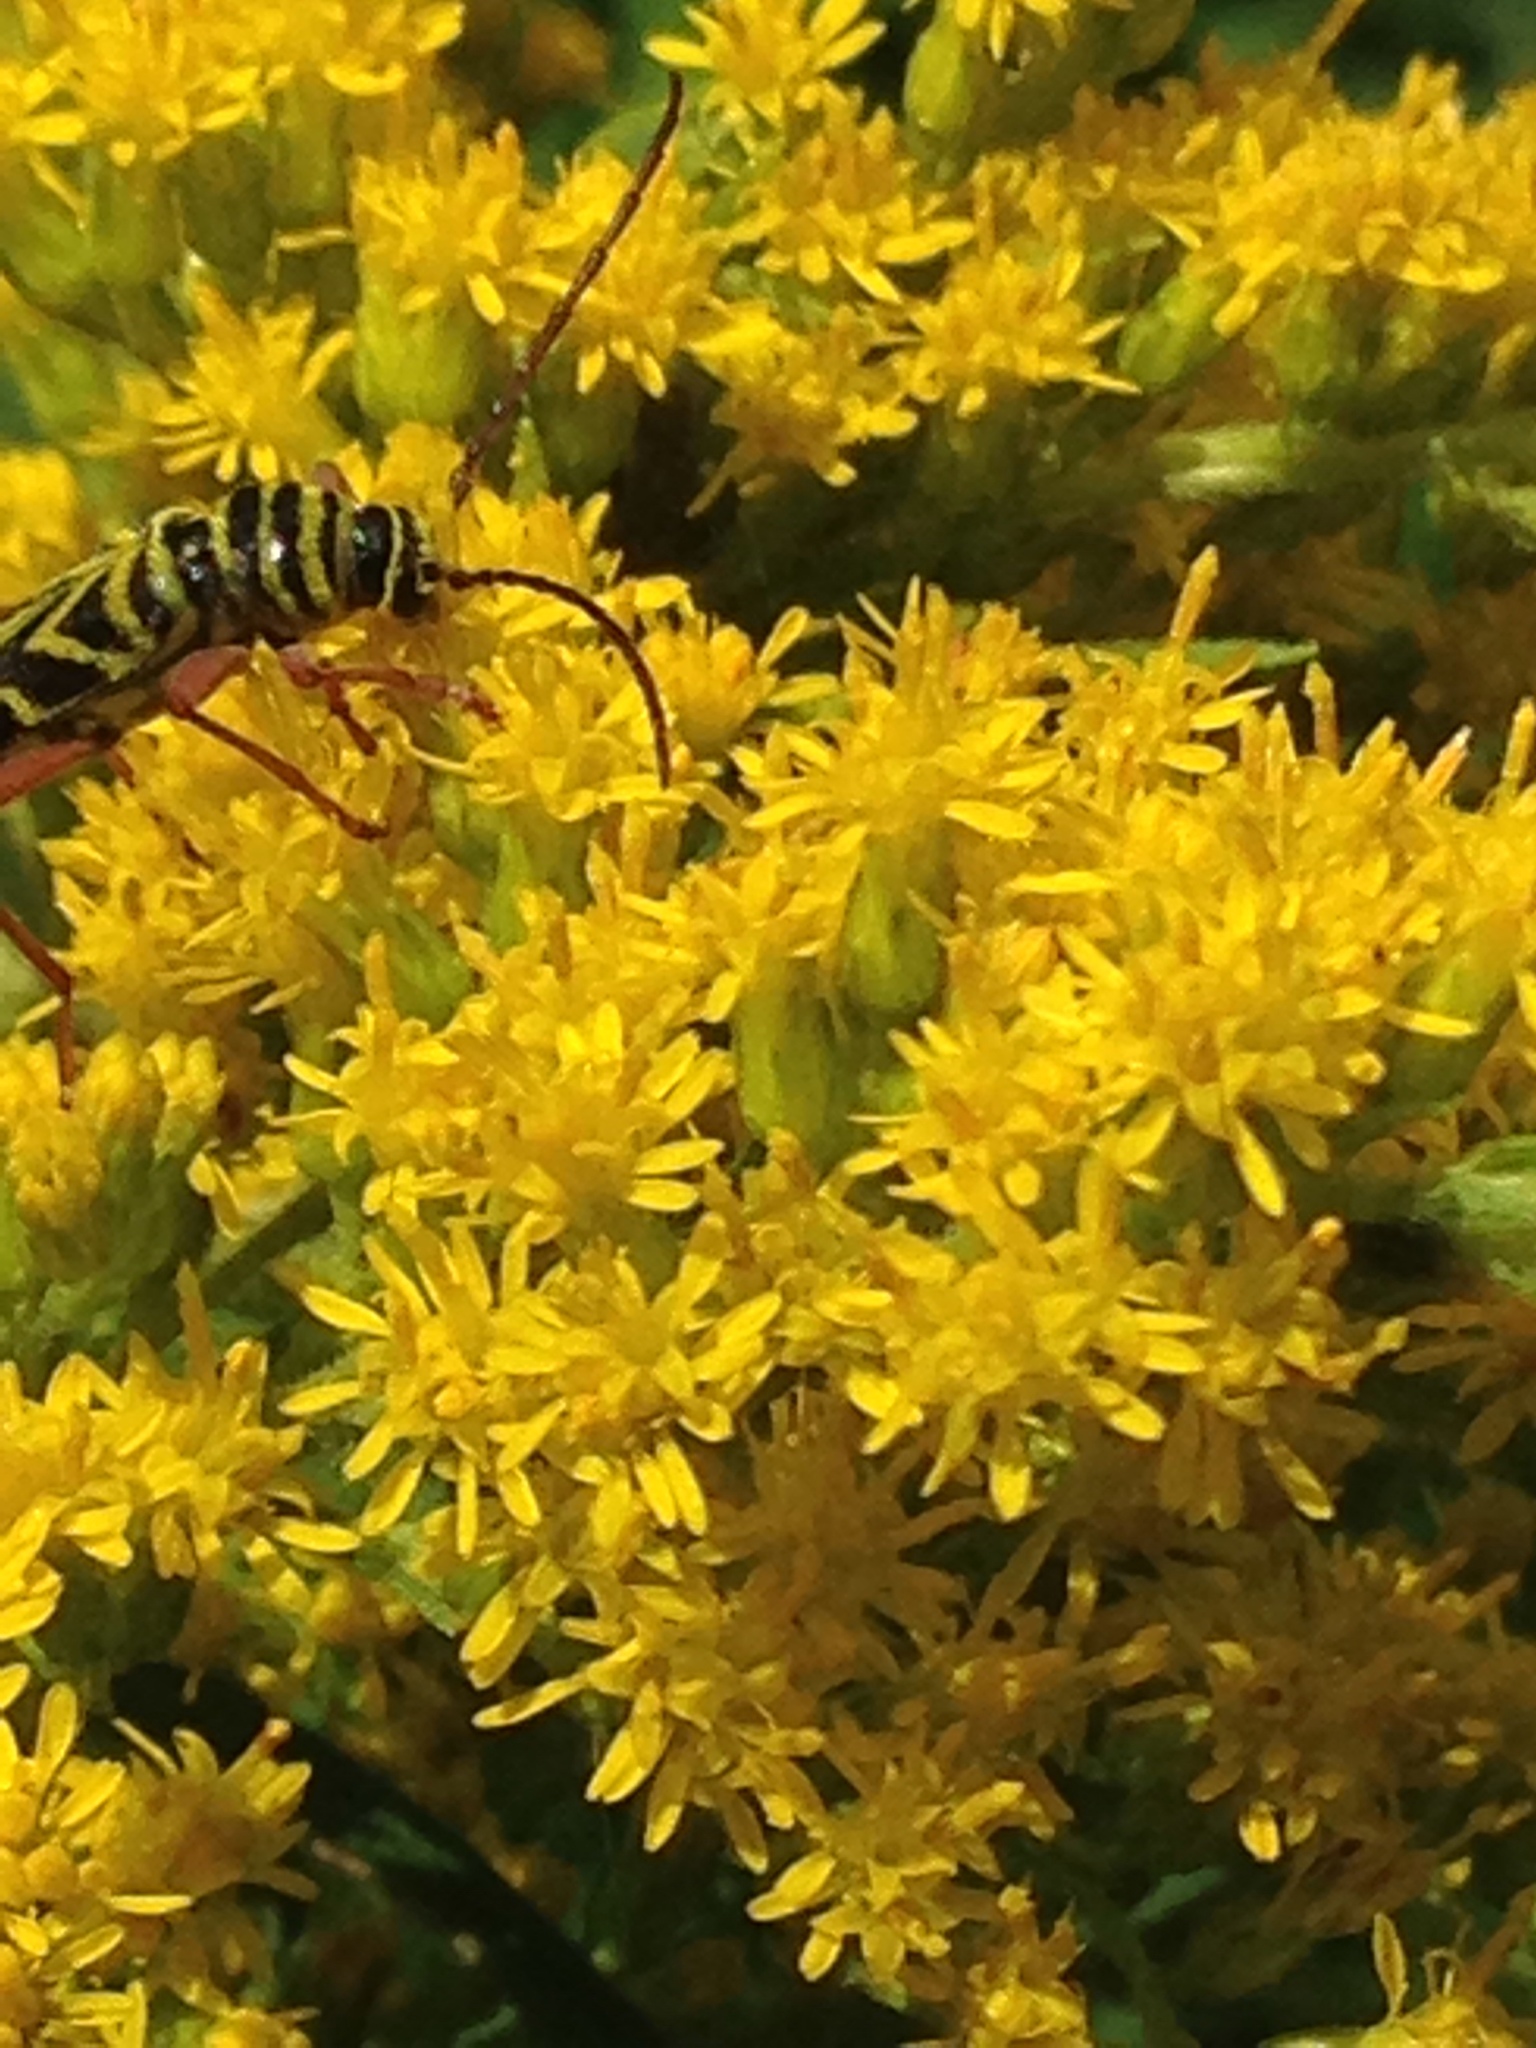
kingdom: Animalia
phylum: Arthropoda
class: Insecta
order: Coleoptera
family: Cerambycidae
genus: Megacyllene
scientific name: Megacyllene robiniae
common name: Locust borer
